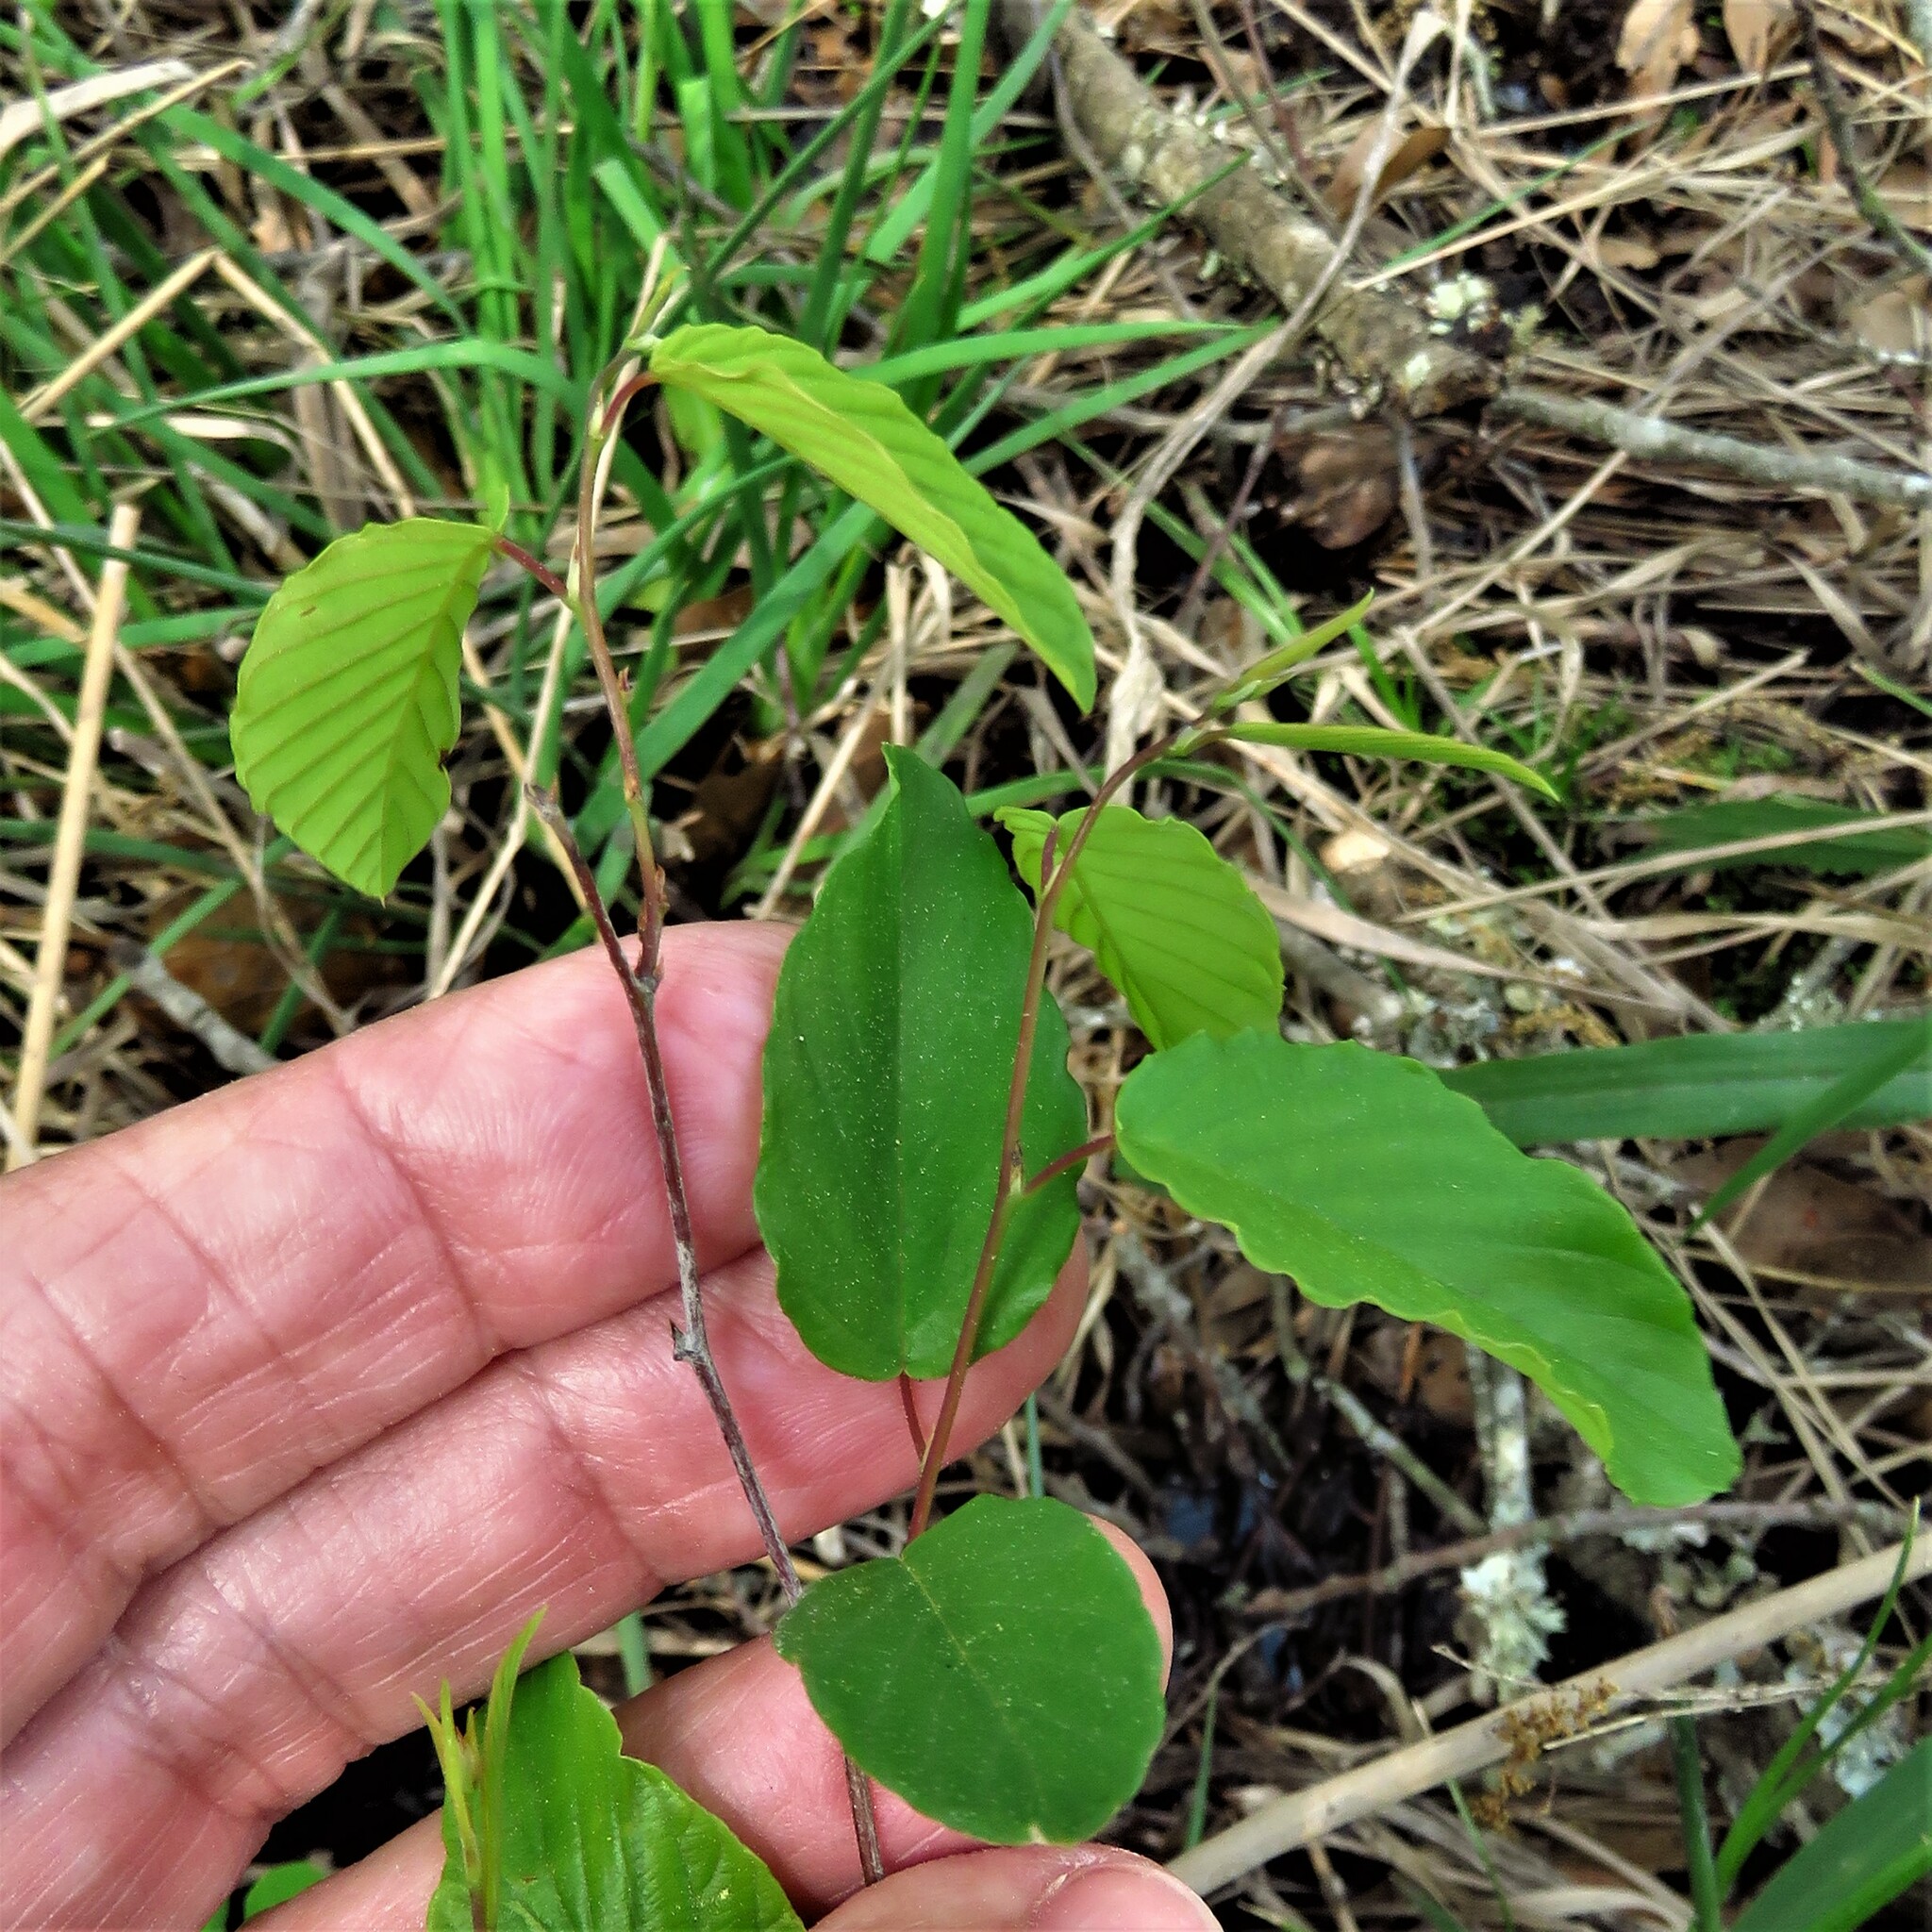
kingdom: Plantae
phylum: Tracheophyta
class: Magnoliopsida
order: Rosales
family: Rhamnaceae
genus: Berchemia
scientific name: Berchemia scandens
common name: Supplejack
